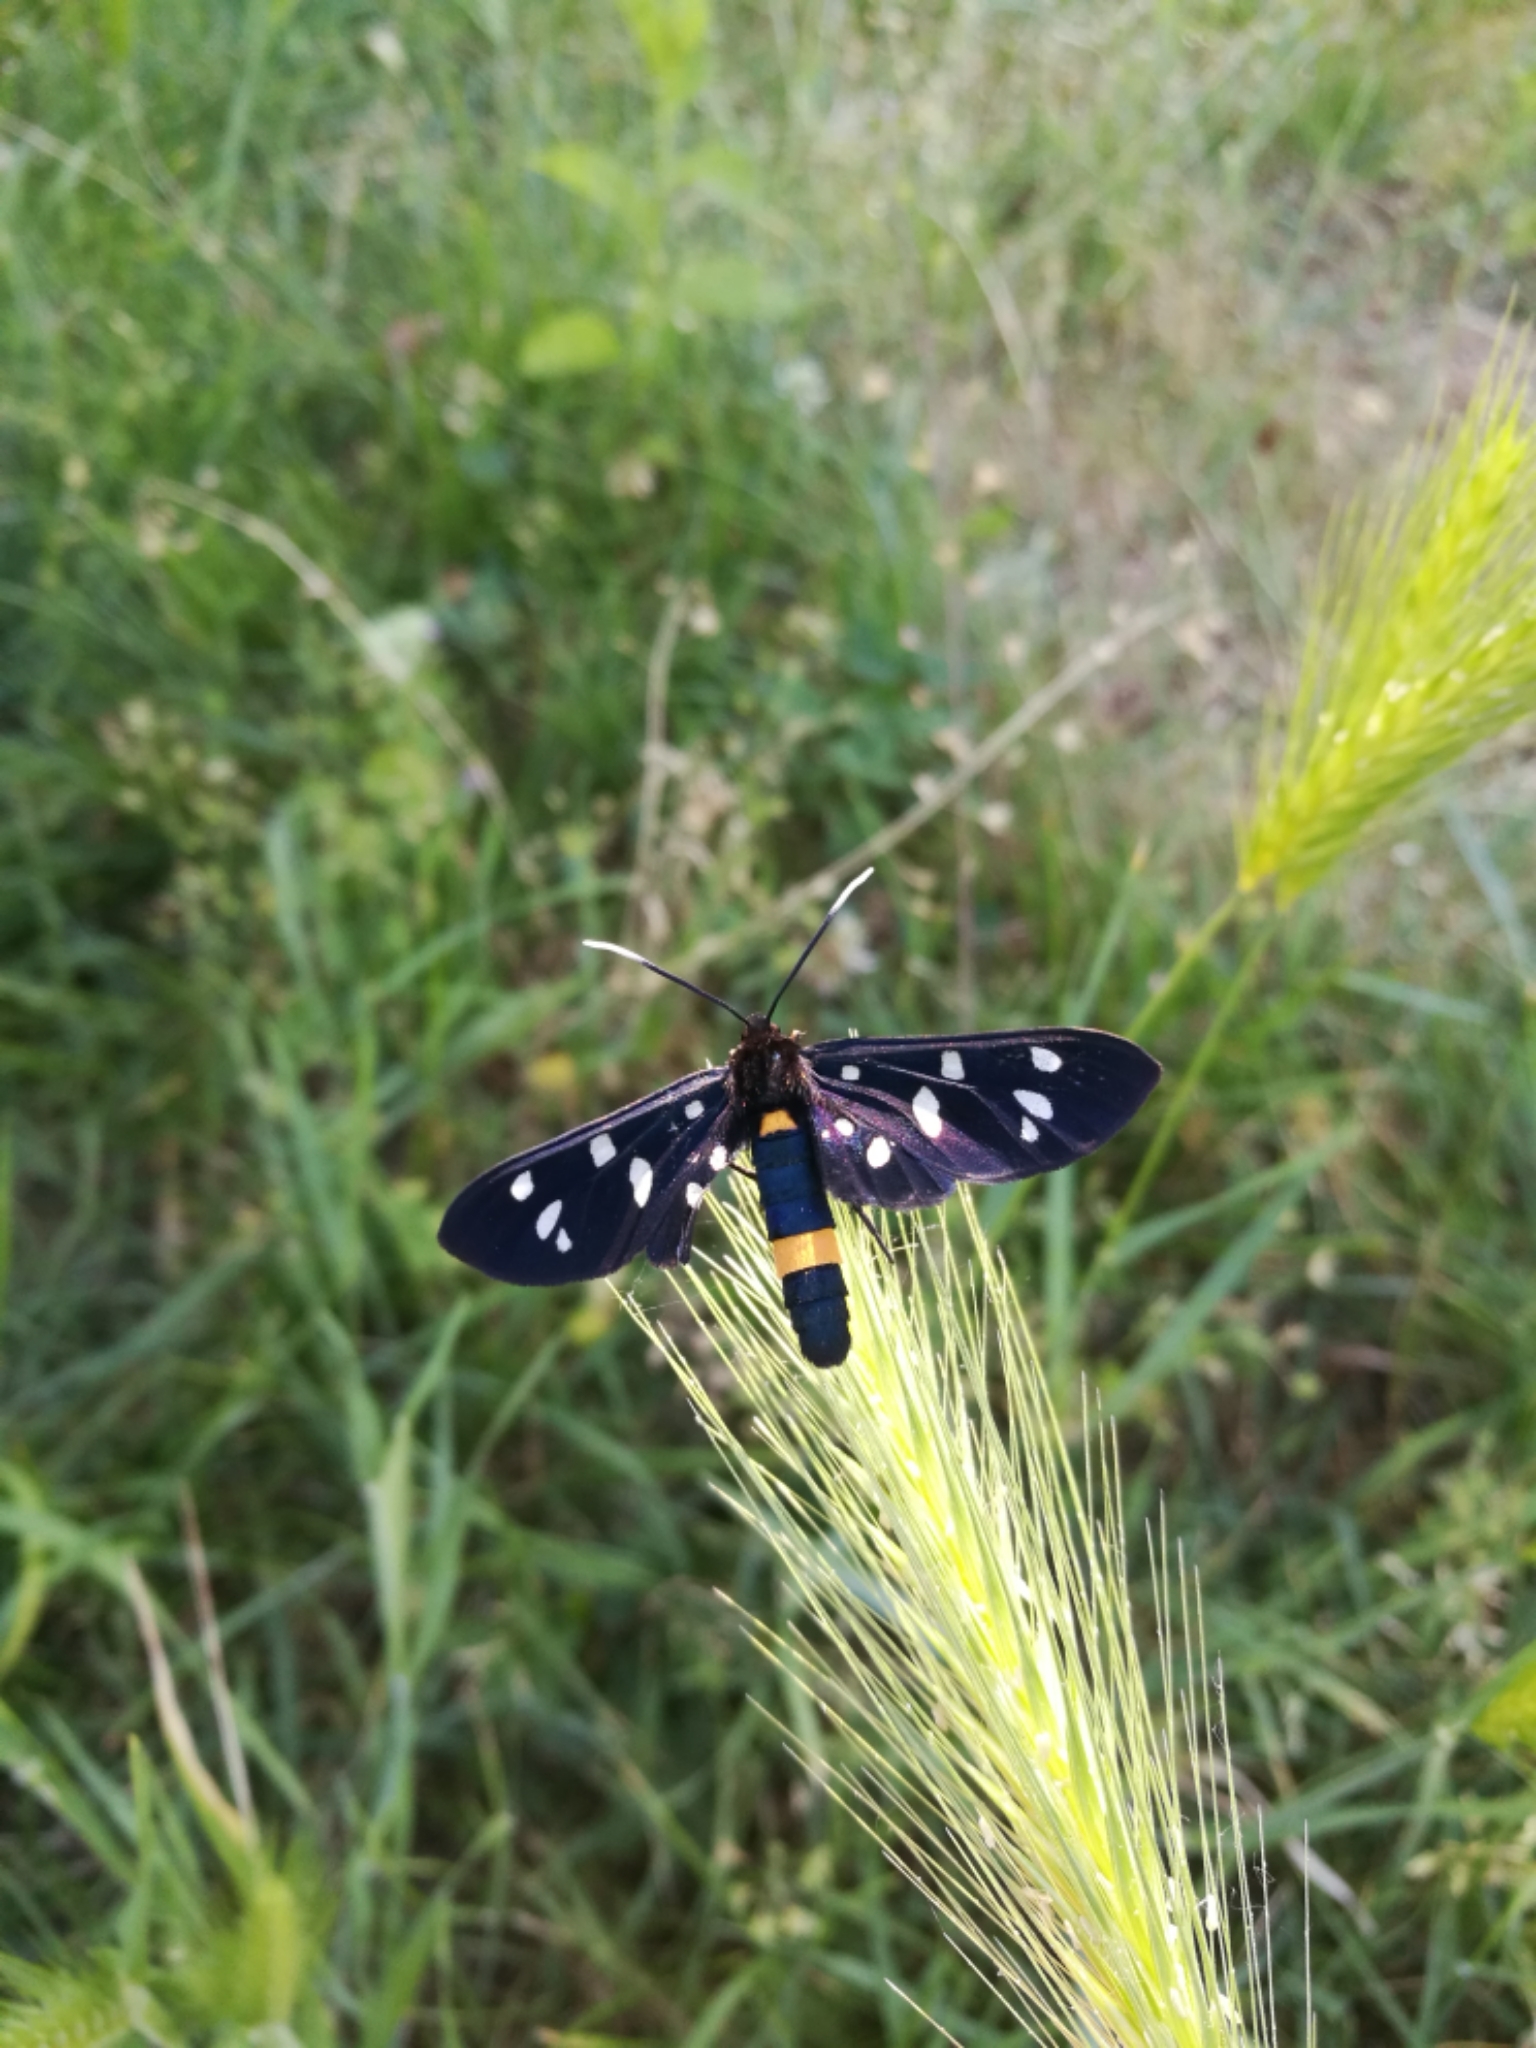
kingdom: Animalia
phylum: Arthropoda
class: Insecta
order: Lepidoptera
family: Erebidae
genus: Amata
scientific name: Amata phegea
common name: Nine-spotted
